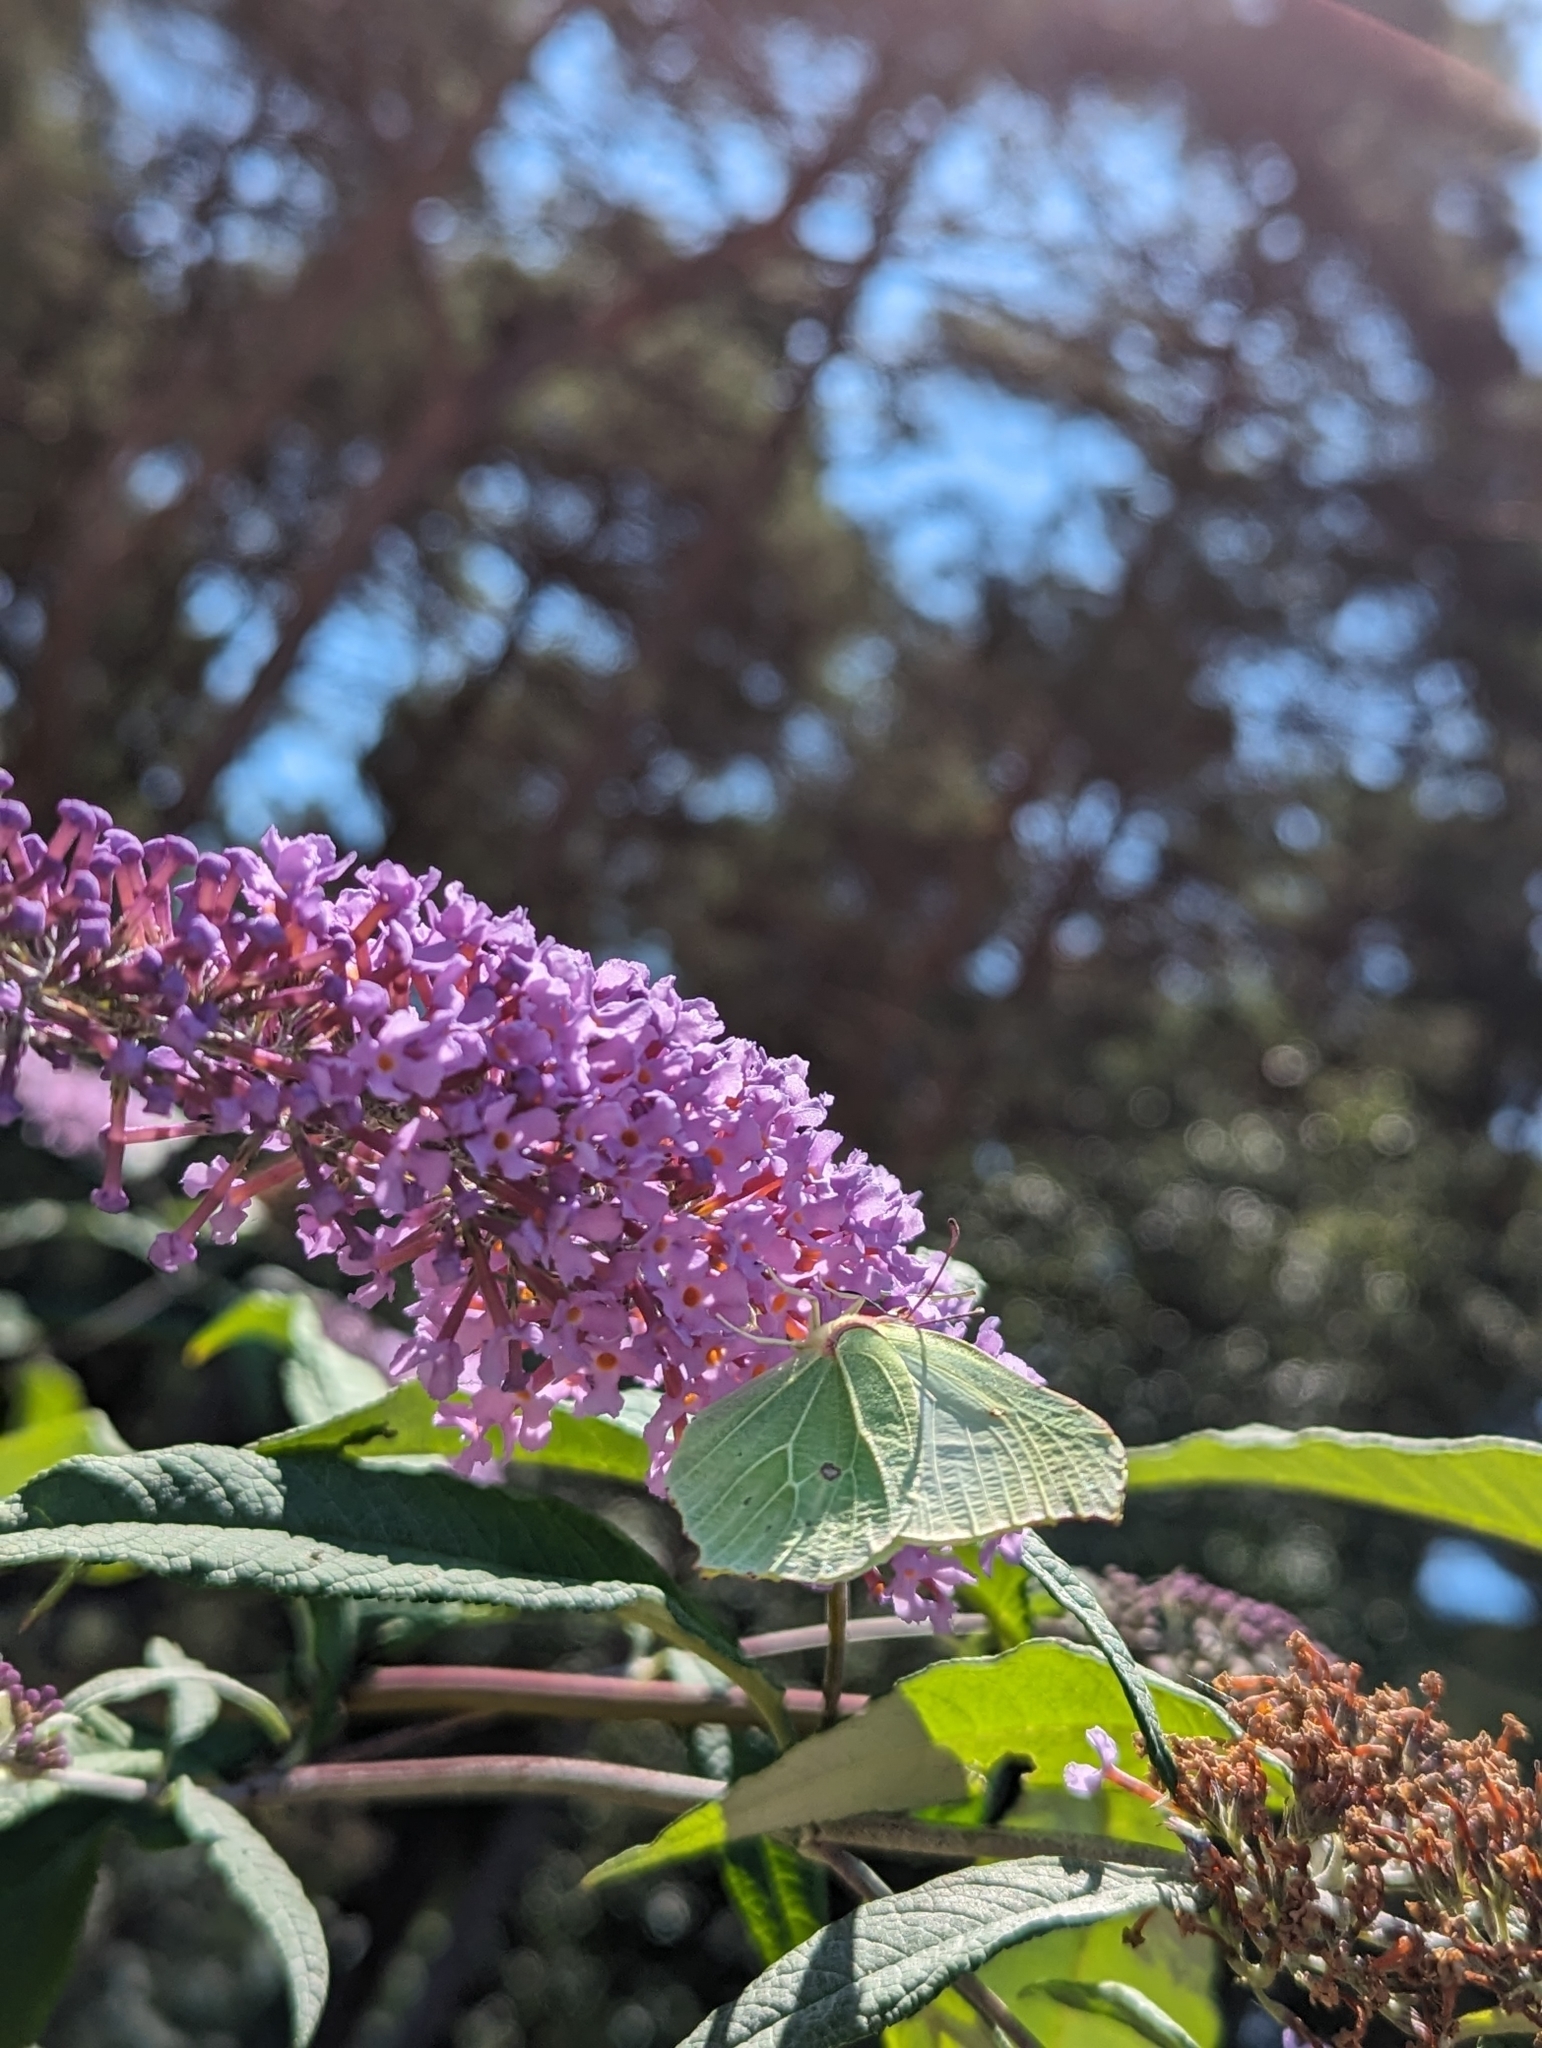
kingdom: Animalia
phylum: Arthropoda
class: Insecta
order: Lepidoptera
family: Pieridae
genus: Gonepteryx
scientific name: Gonepteryx rhamni
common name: Brimstone
